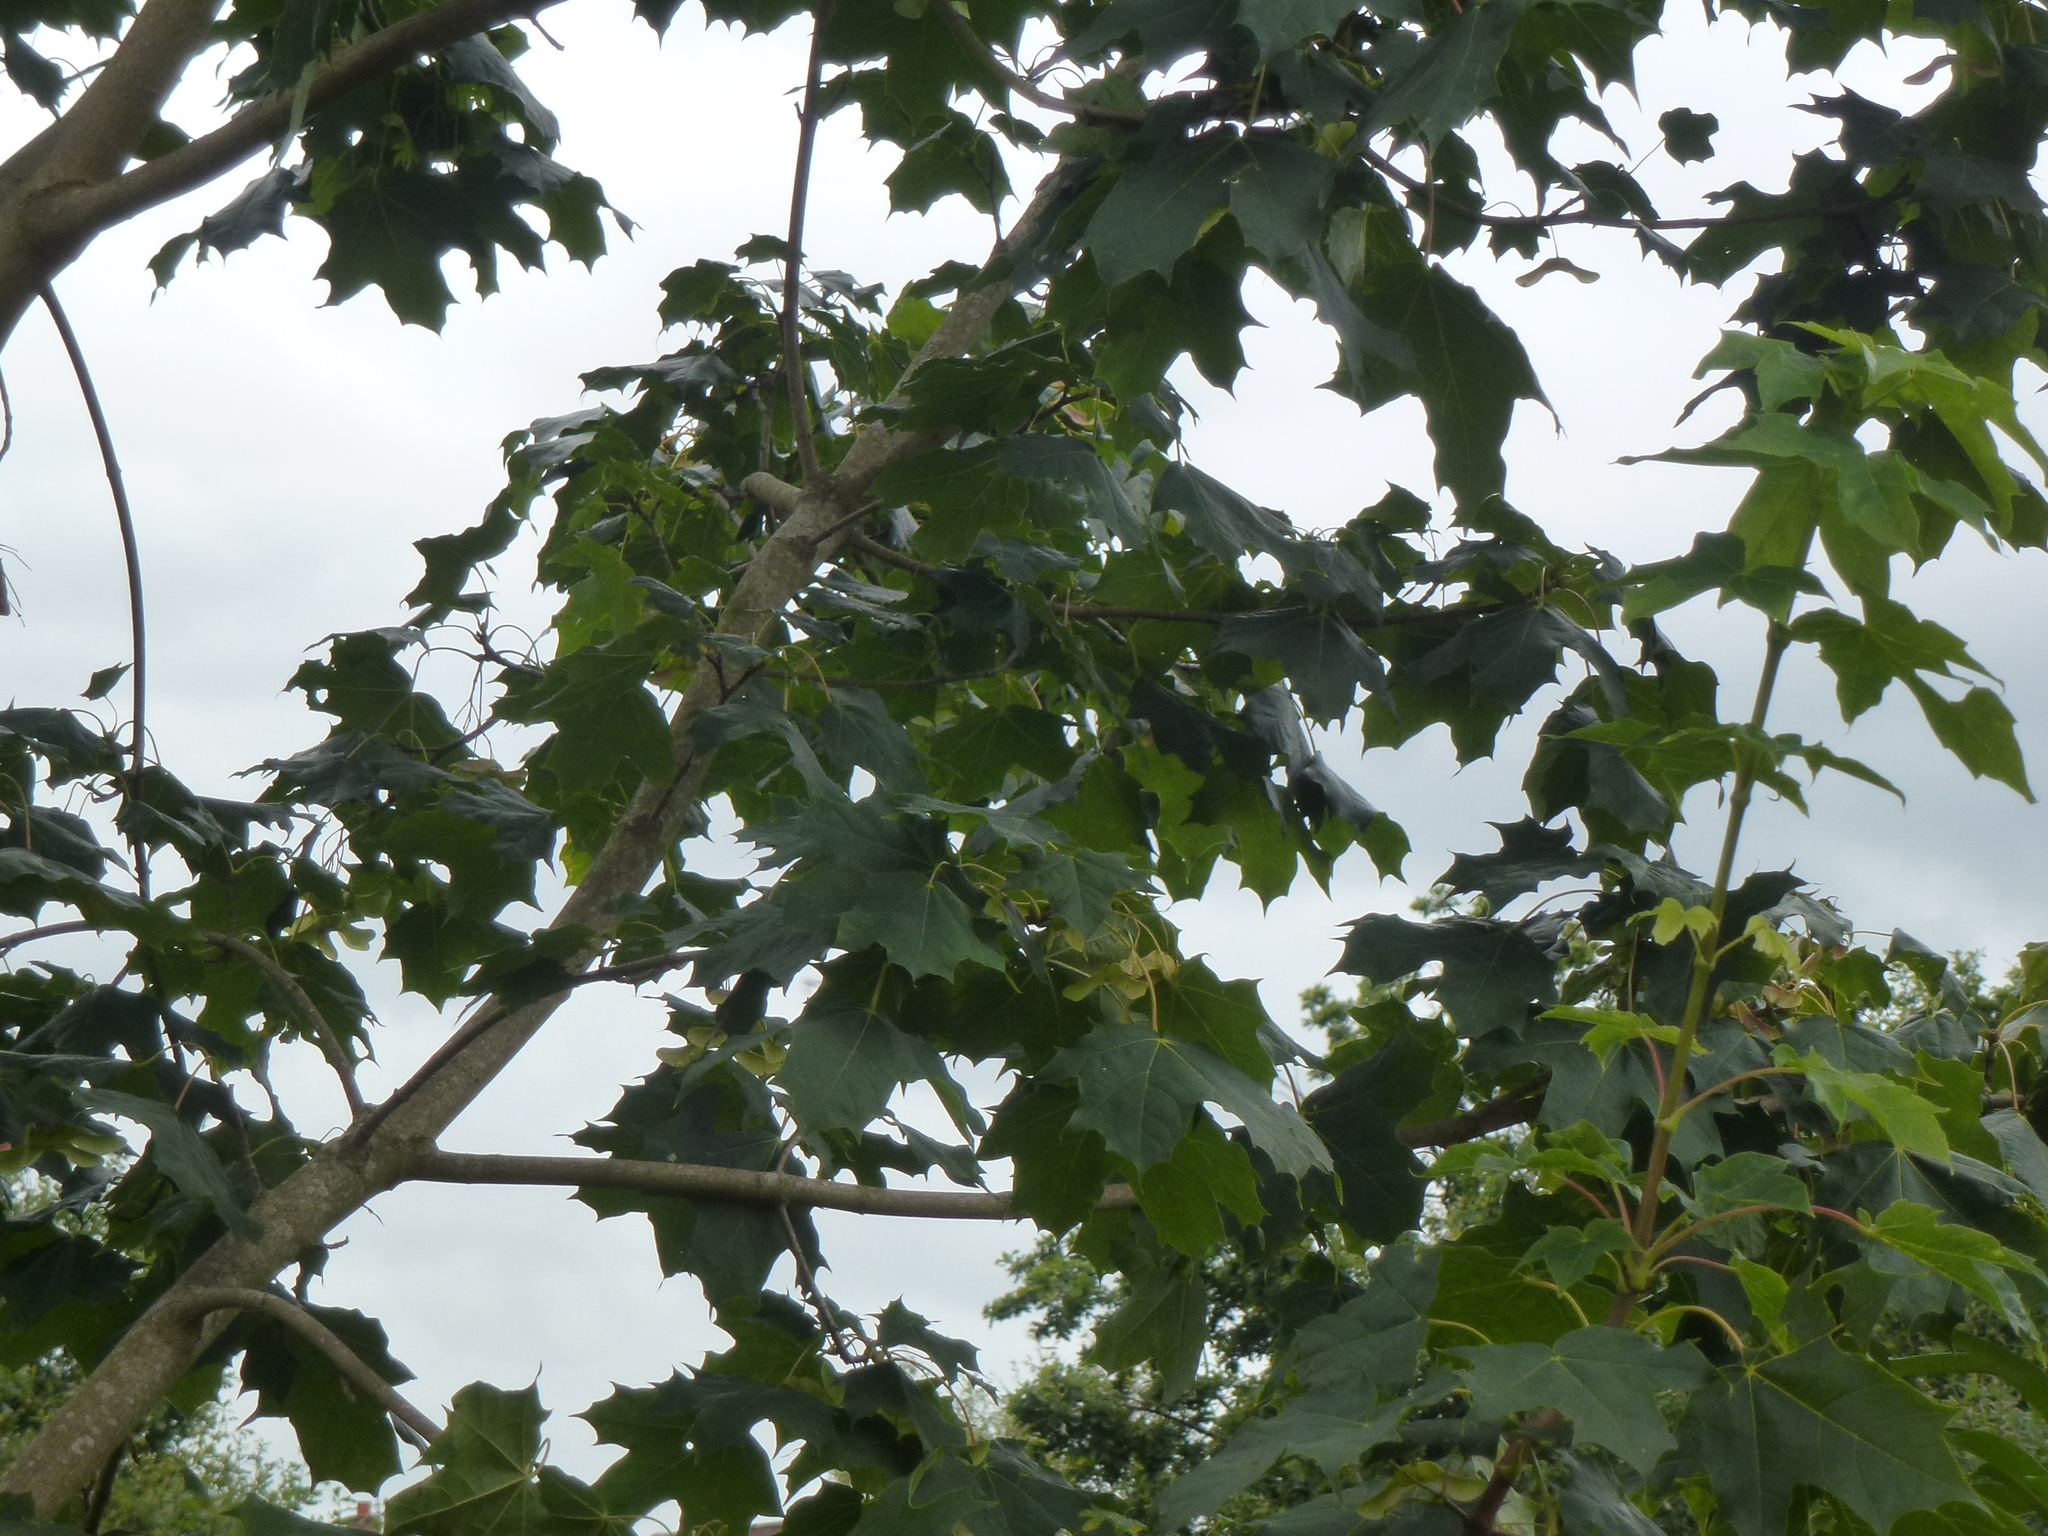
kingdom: Plantae
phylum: Tracheophyta
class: Magnoliopsida
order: Sapindales
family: Sapindaceae
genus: Acer
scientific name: Acer platanoides
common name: Norway maple
